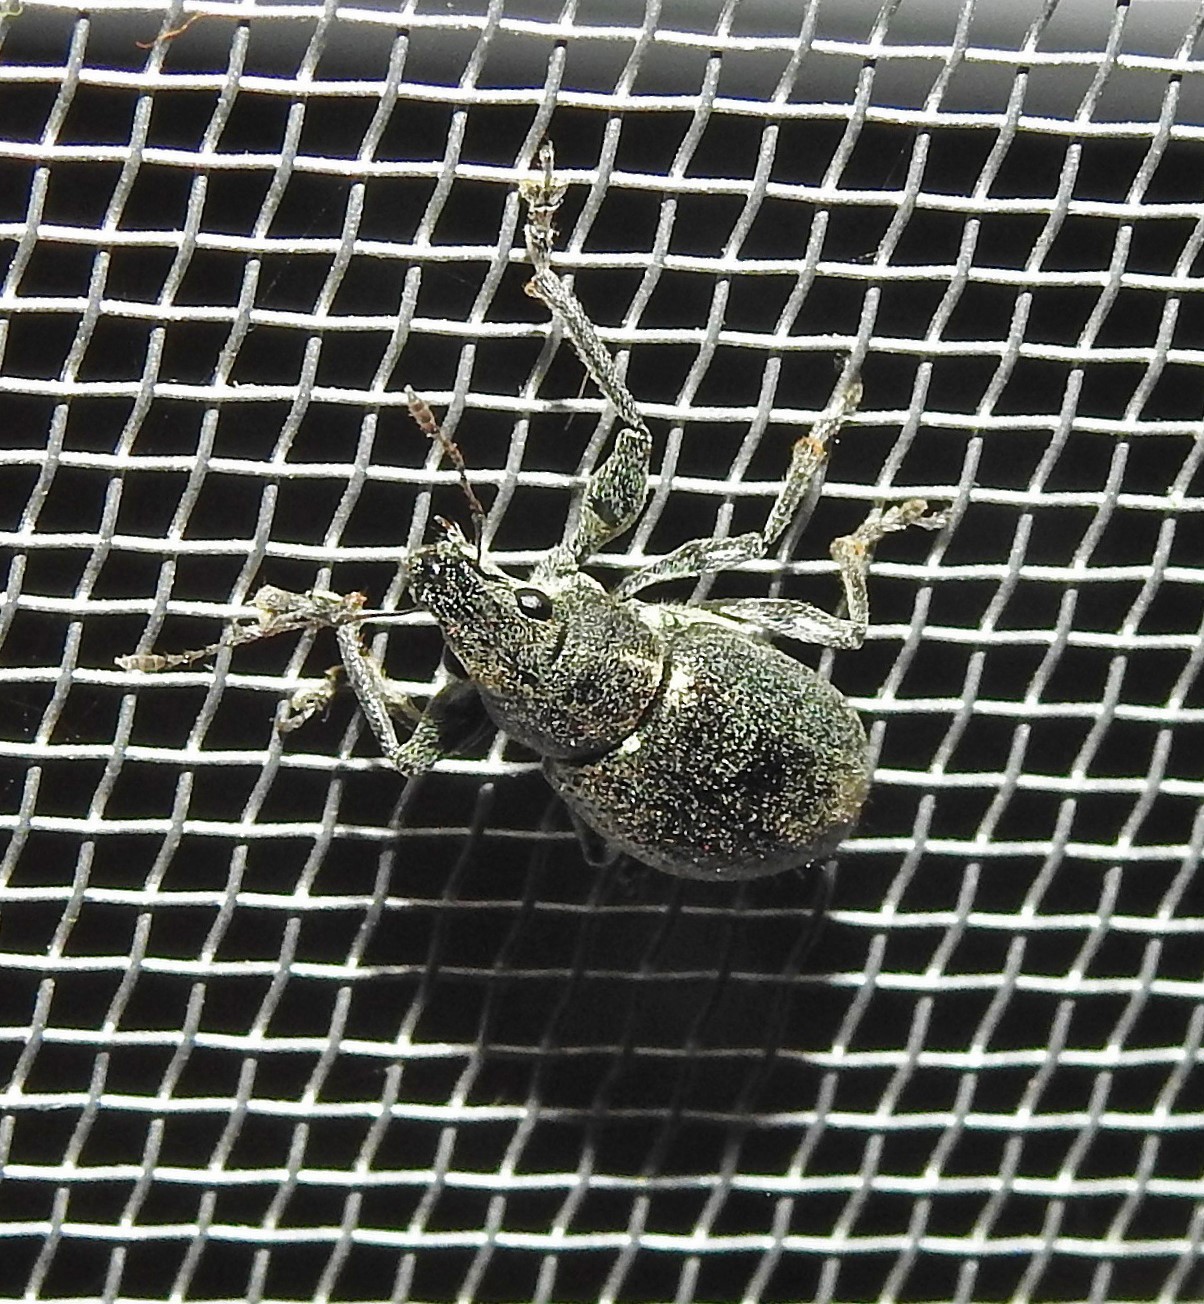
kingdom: Animalia
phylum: Arthropoda
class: Insecta
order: Coleoptera
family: Curculionidae
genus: Naupactus
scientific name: Naupactus versatilis
